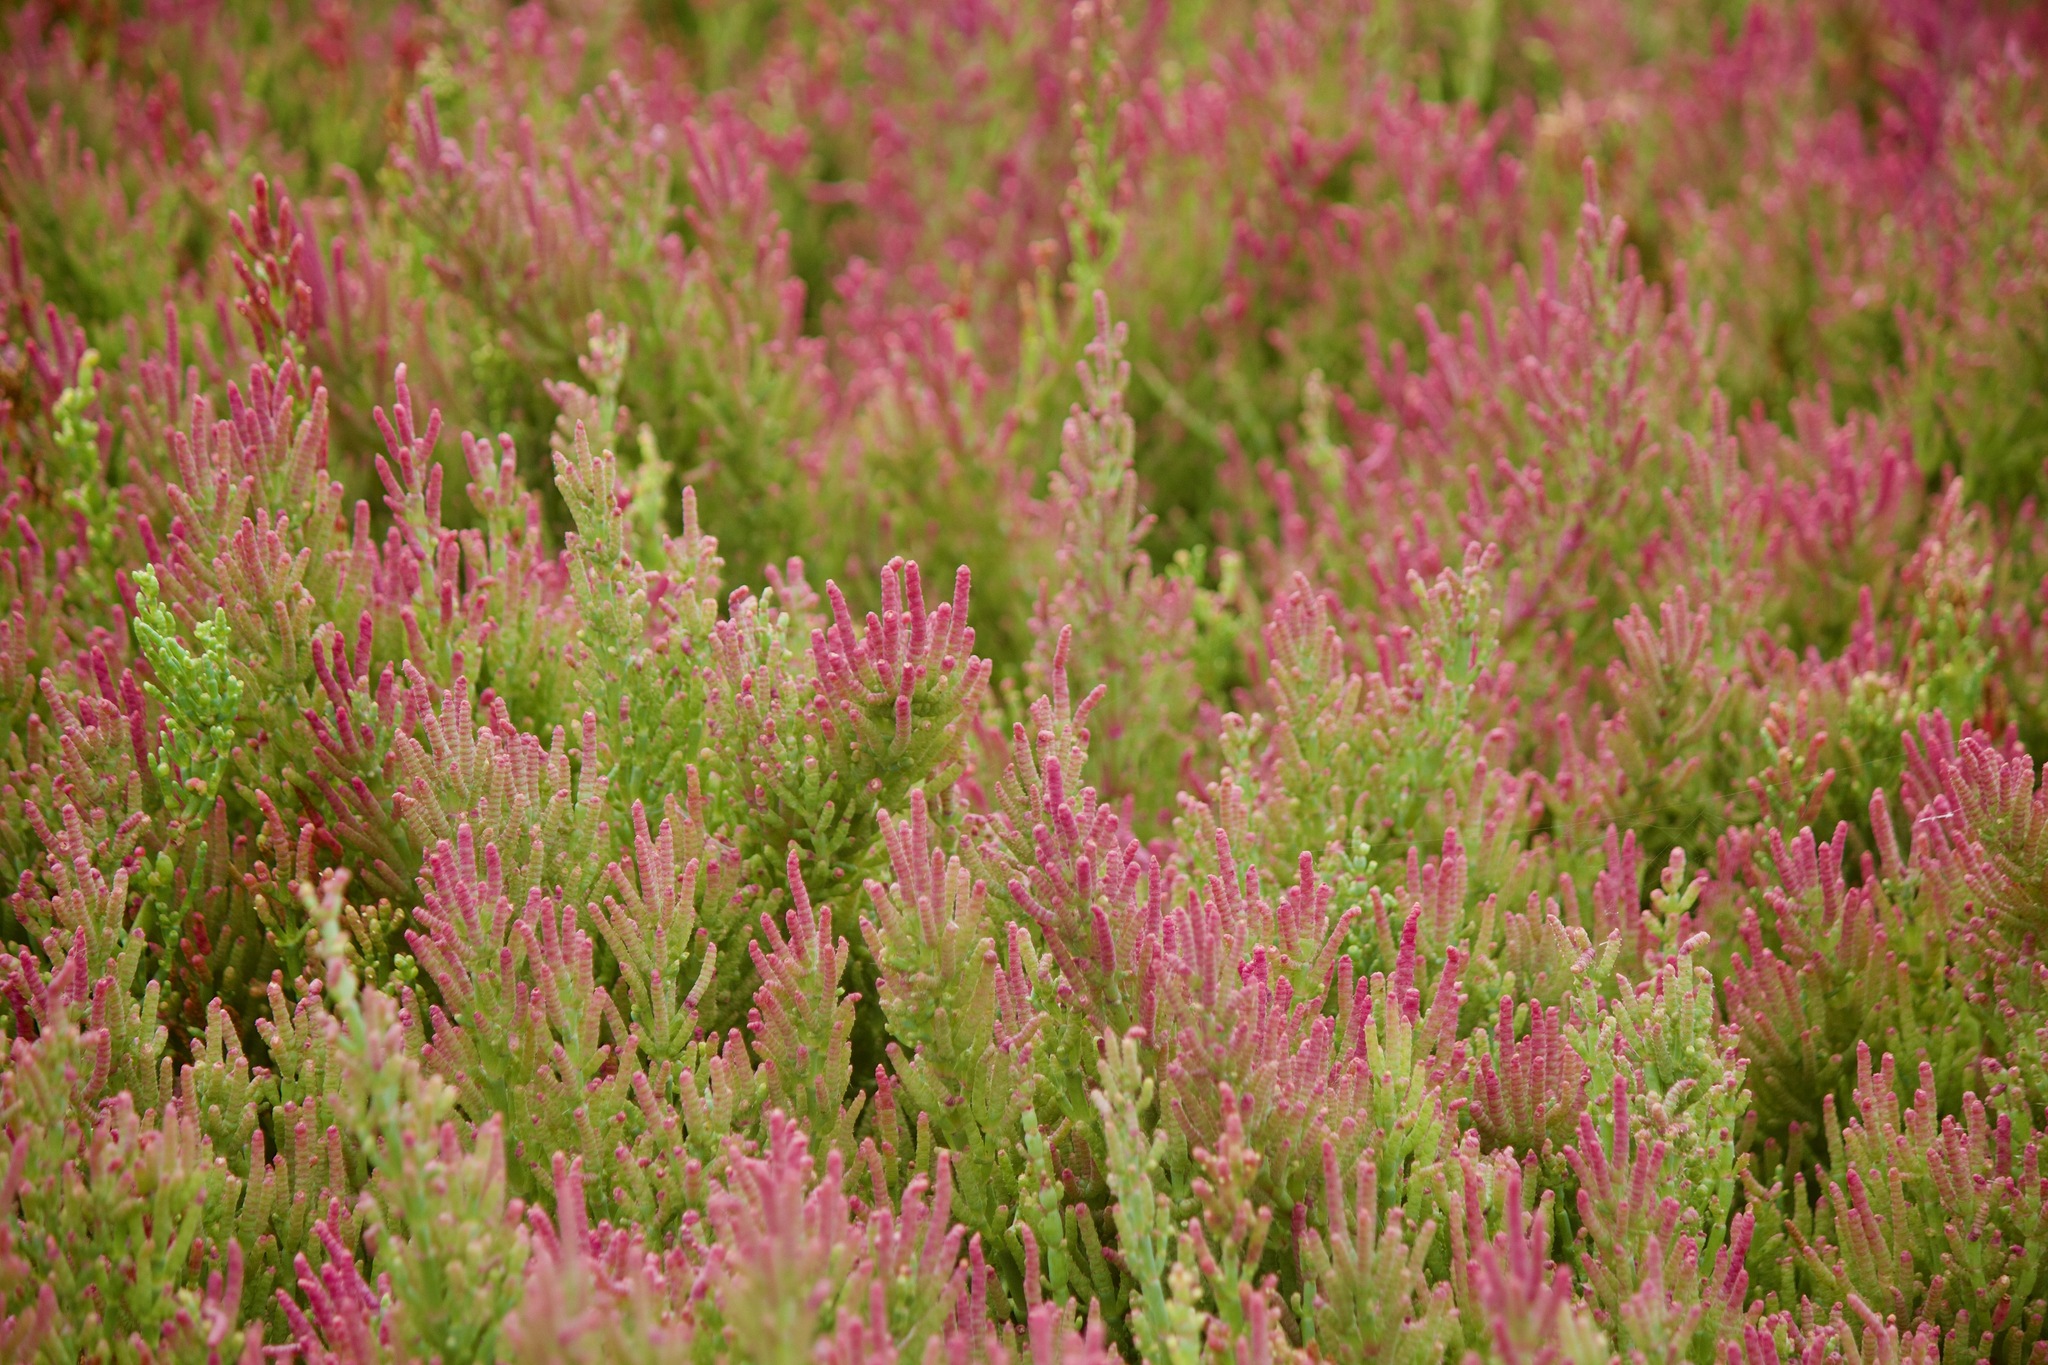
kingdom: Plantae
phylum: Tracheophyta
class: Magnoliopsida
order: Caryophyllales
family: Amaranthaceae
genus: Salicornia
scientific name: Salicornia neei
